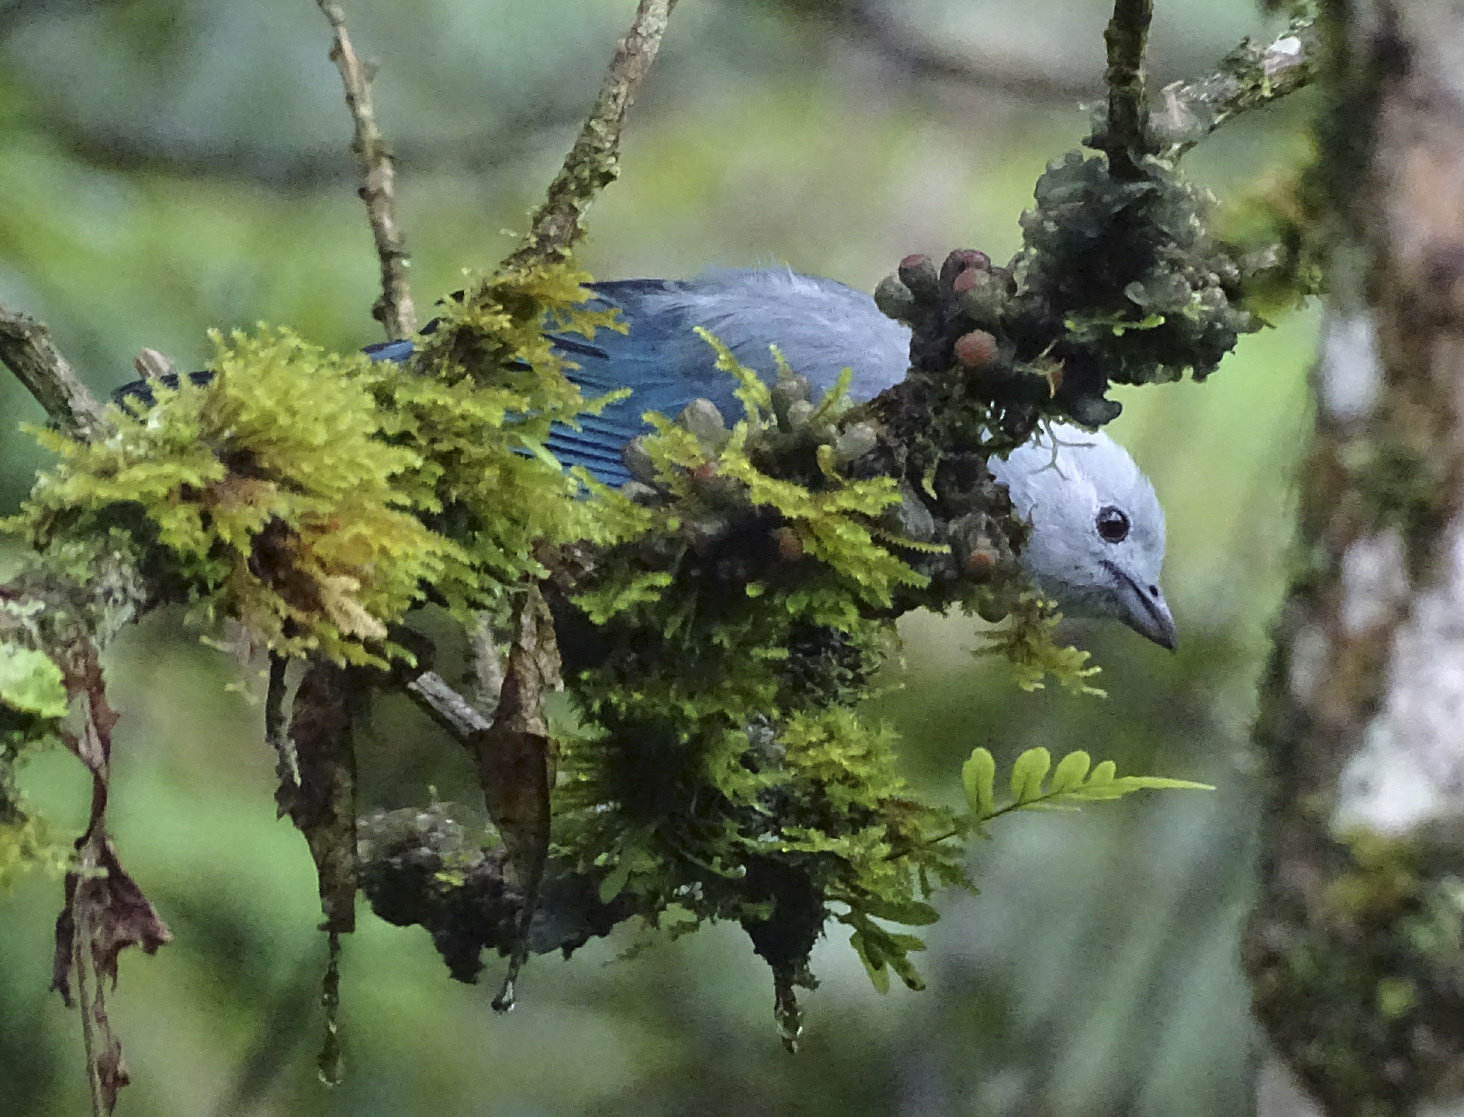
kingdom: Animalia
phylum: Chordata
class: Aves
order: Passeriformes
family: Thraupidae
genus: Thraupis
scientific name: Thraupis episcopus
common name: Blue-grey tanager
